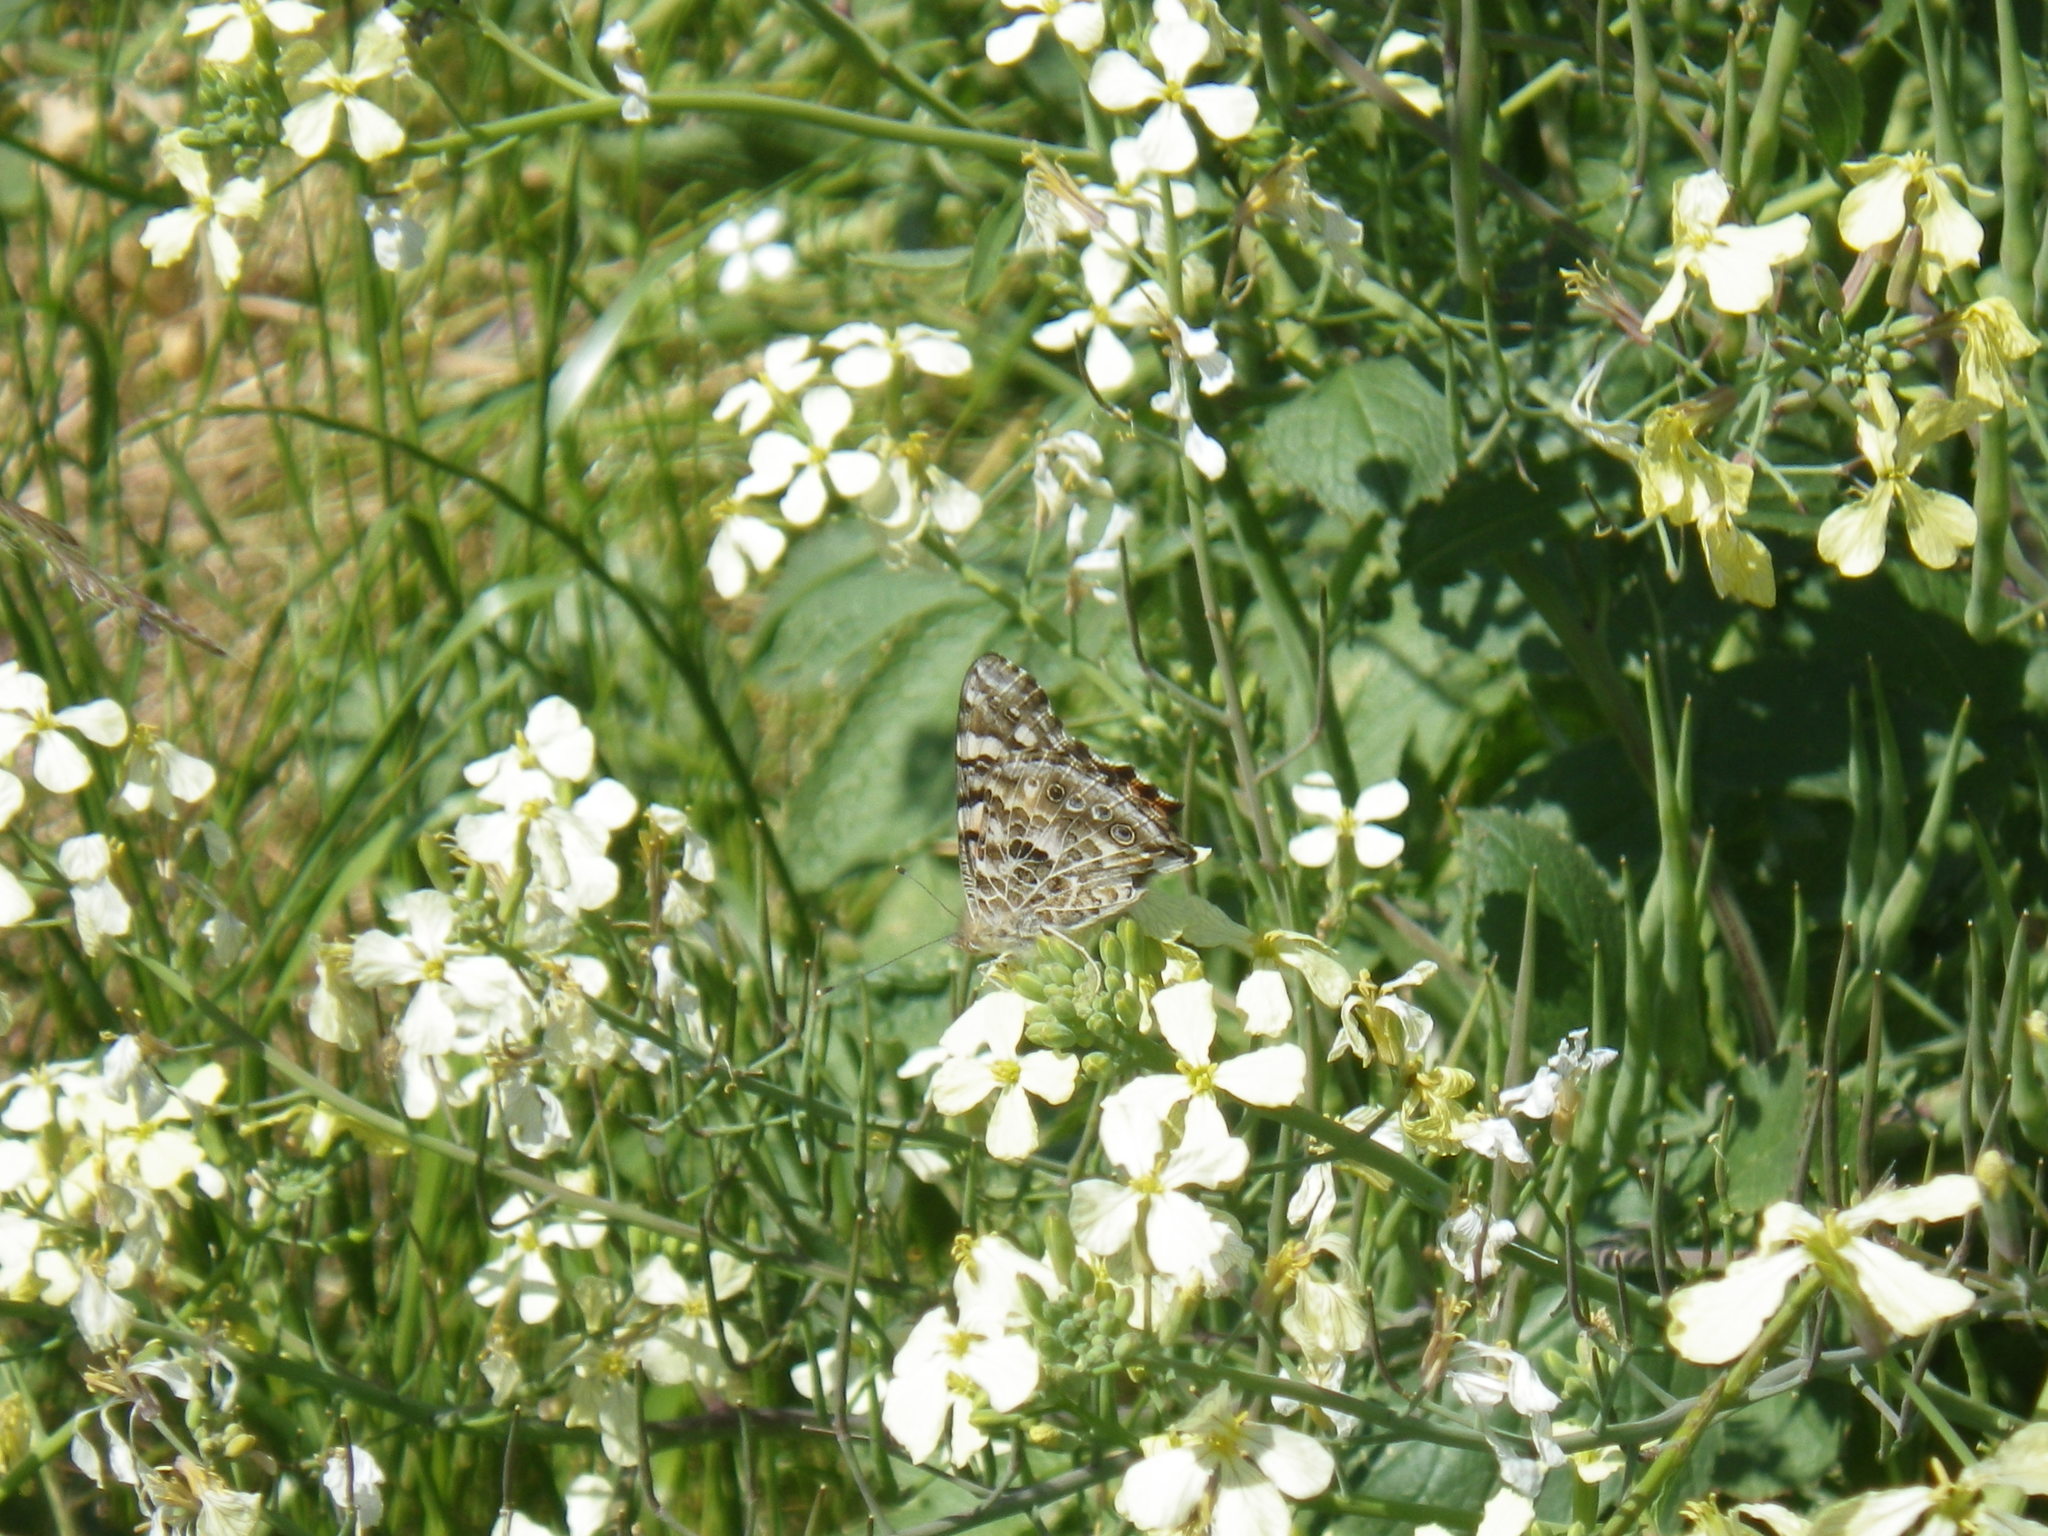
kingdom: Animalia
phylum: Arthropoda
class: Insecta
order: Lepidoptera
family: Nymphalidae
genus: Vanessa
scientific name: Vanessa cardui
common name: Painted lady
